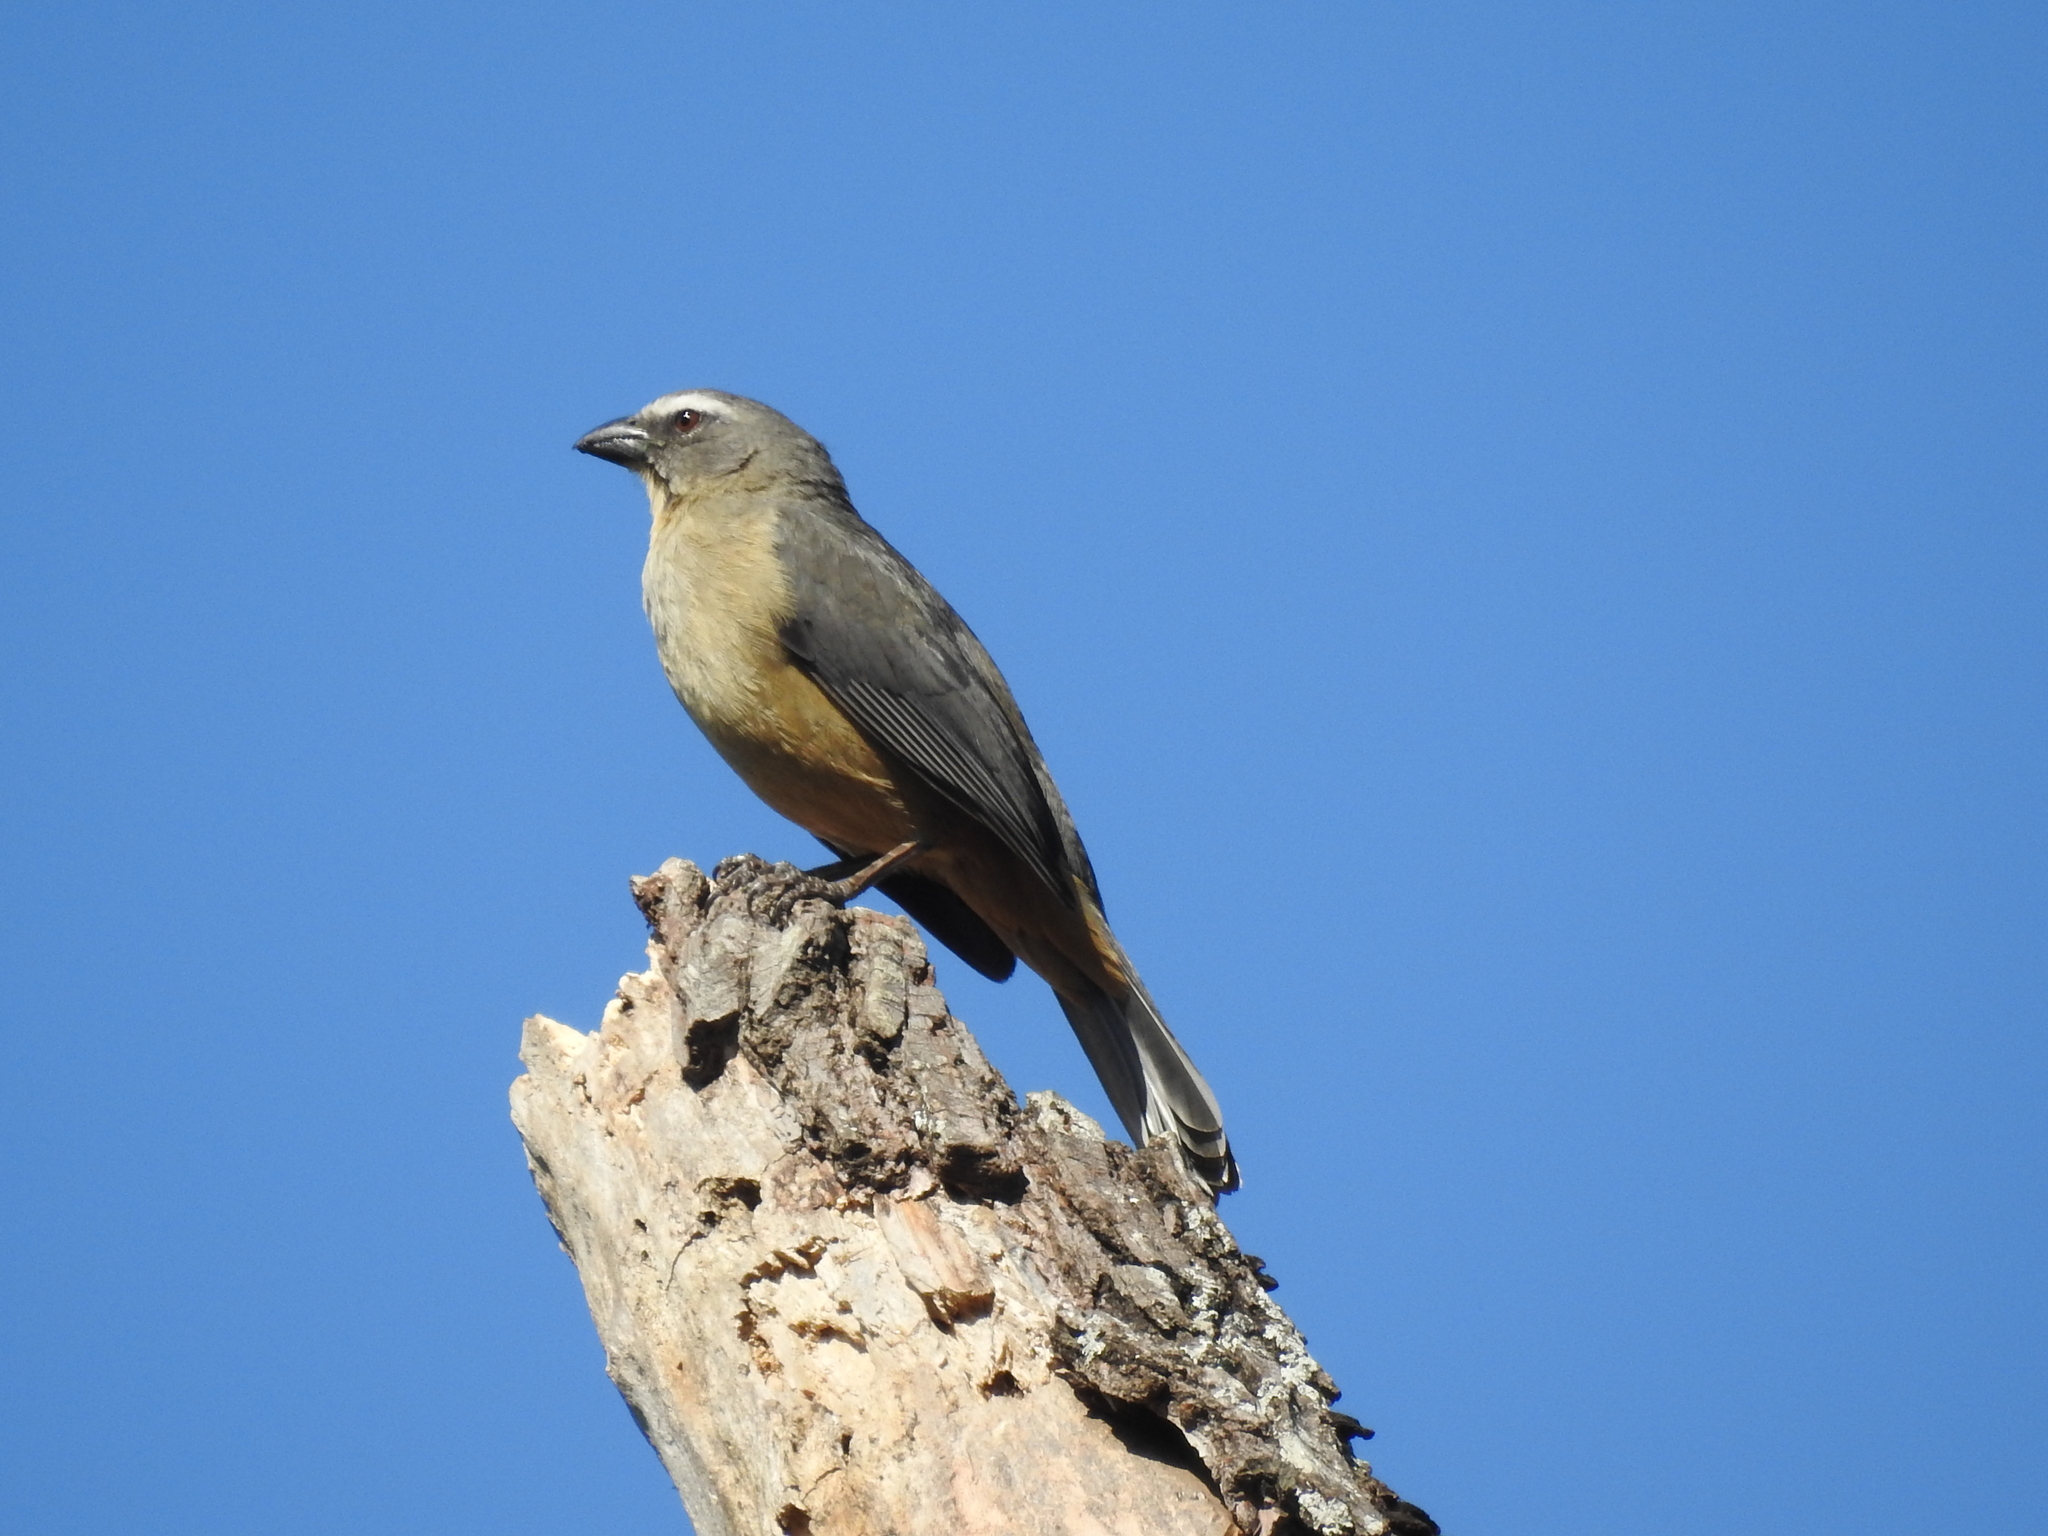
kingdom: Animalia
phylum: Chordata
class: Aves
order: Passeriformes
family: Thraupidae
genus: Saltator
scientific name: Saltator coerulescens
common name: Grayish saltator
